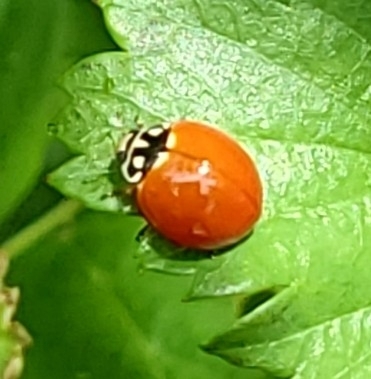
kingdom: Animalia
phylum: Arthropoda
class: Insecta
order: Coleoptera
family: Coccinellidae
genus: Cycloneda
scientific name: Cycloneda sanguinea
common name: Ladybird beetle
